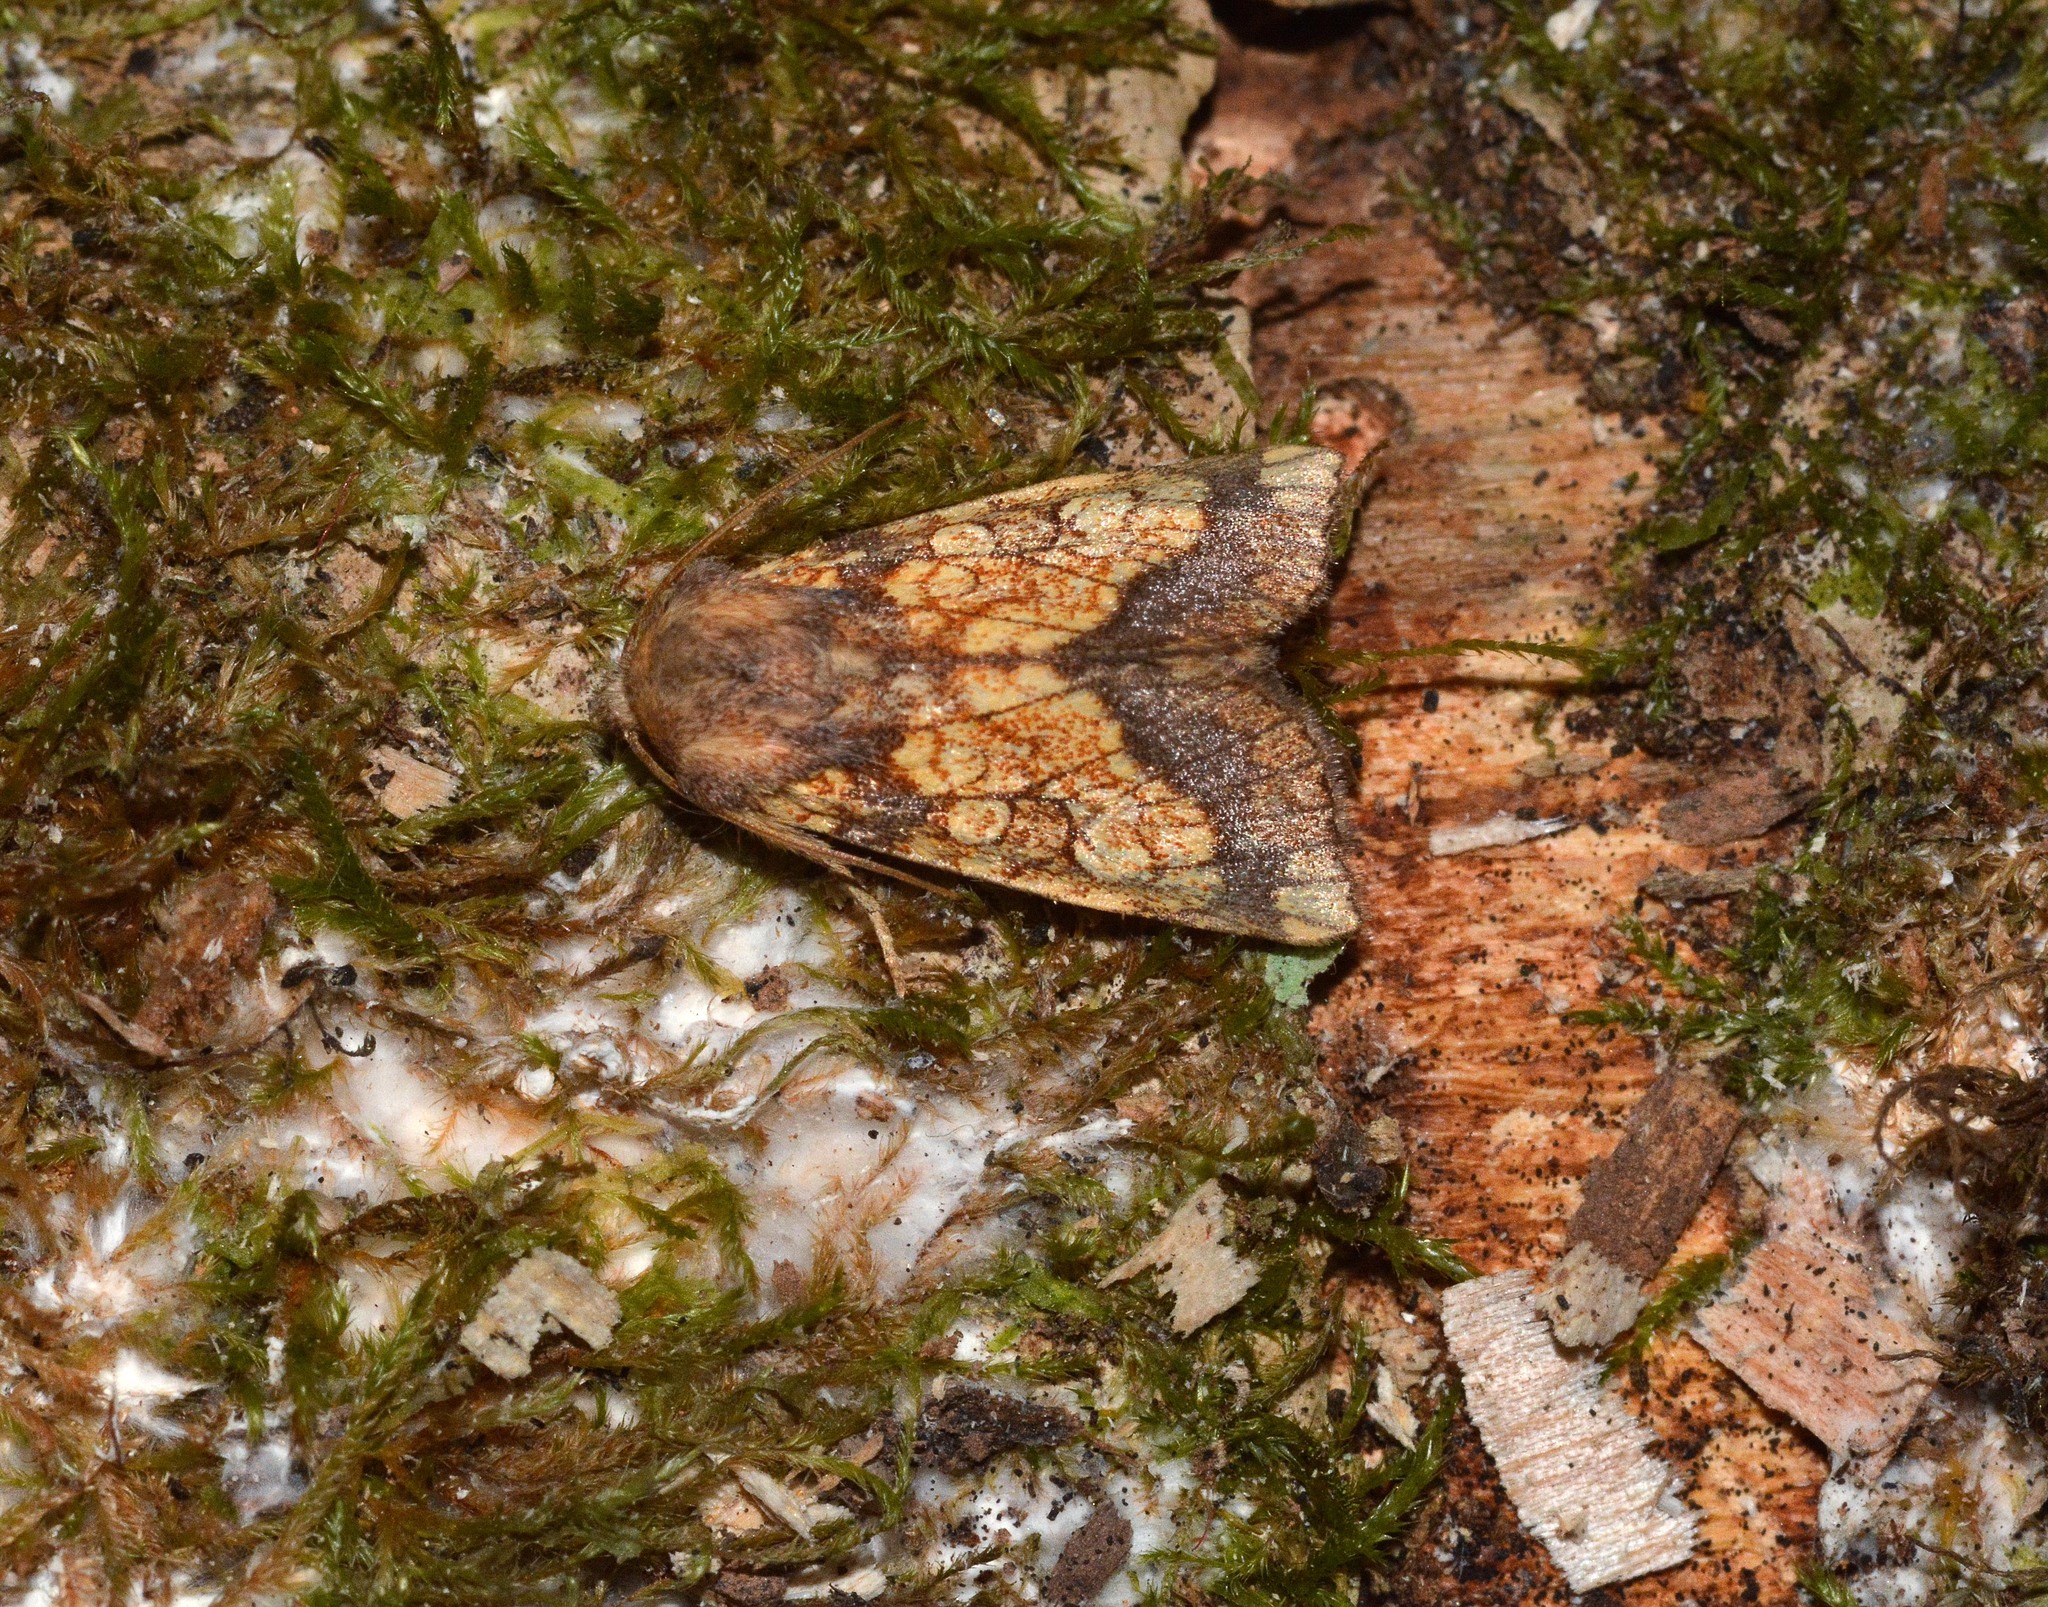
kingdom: Animalia
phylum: Arthropoda
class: Insecta
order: Lepidoptera
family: Noctuidae
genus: Gortyna
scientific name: Gortyna flavago
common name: Frosted orange
